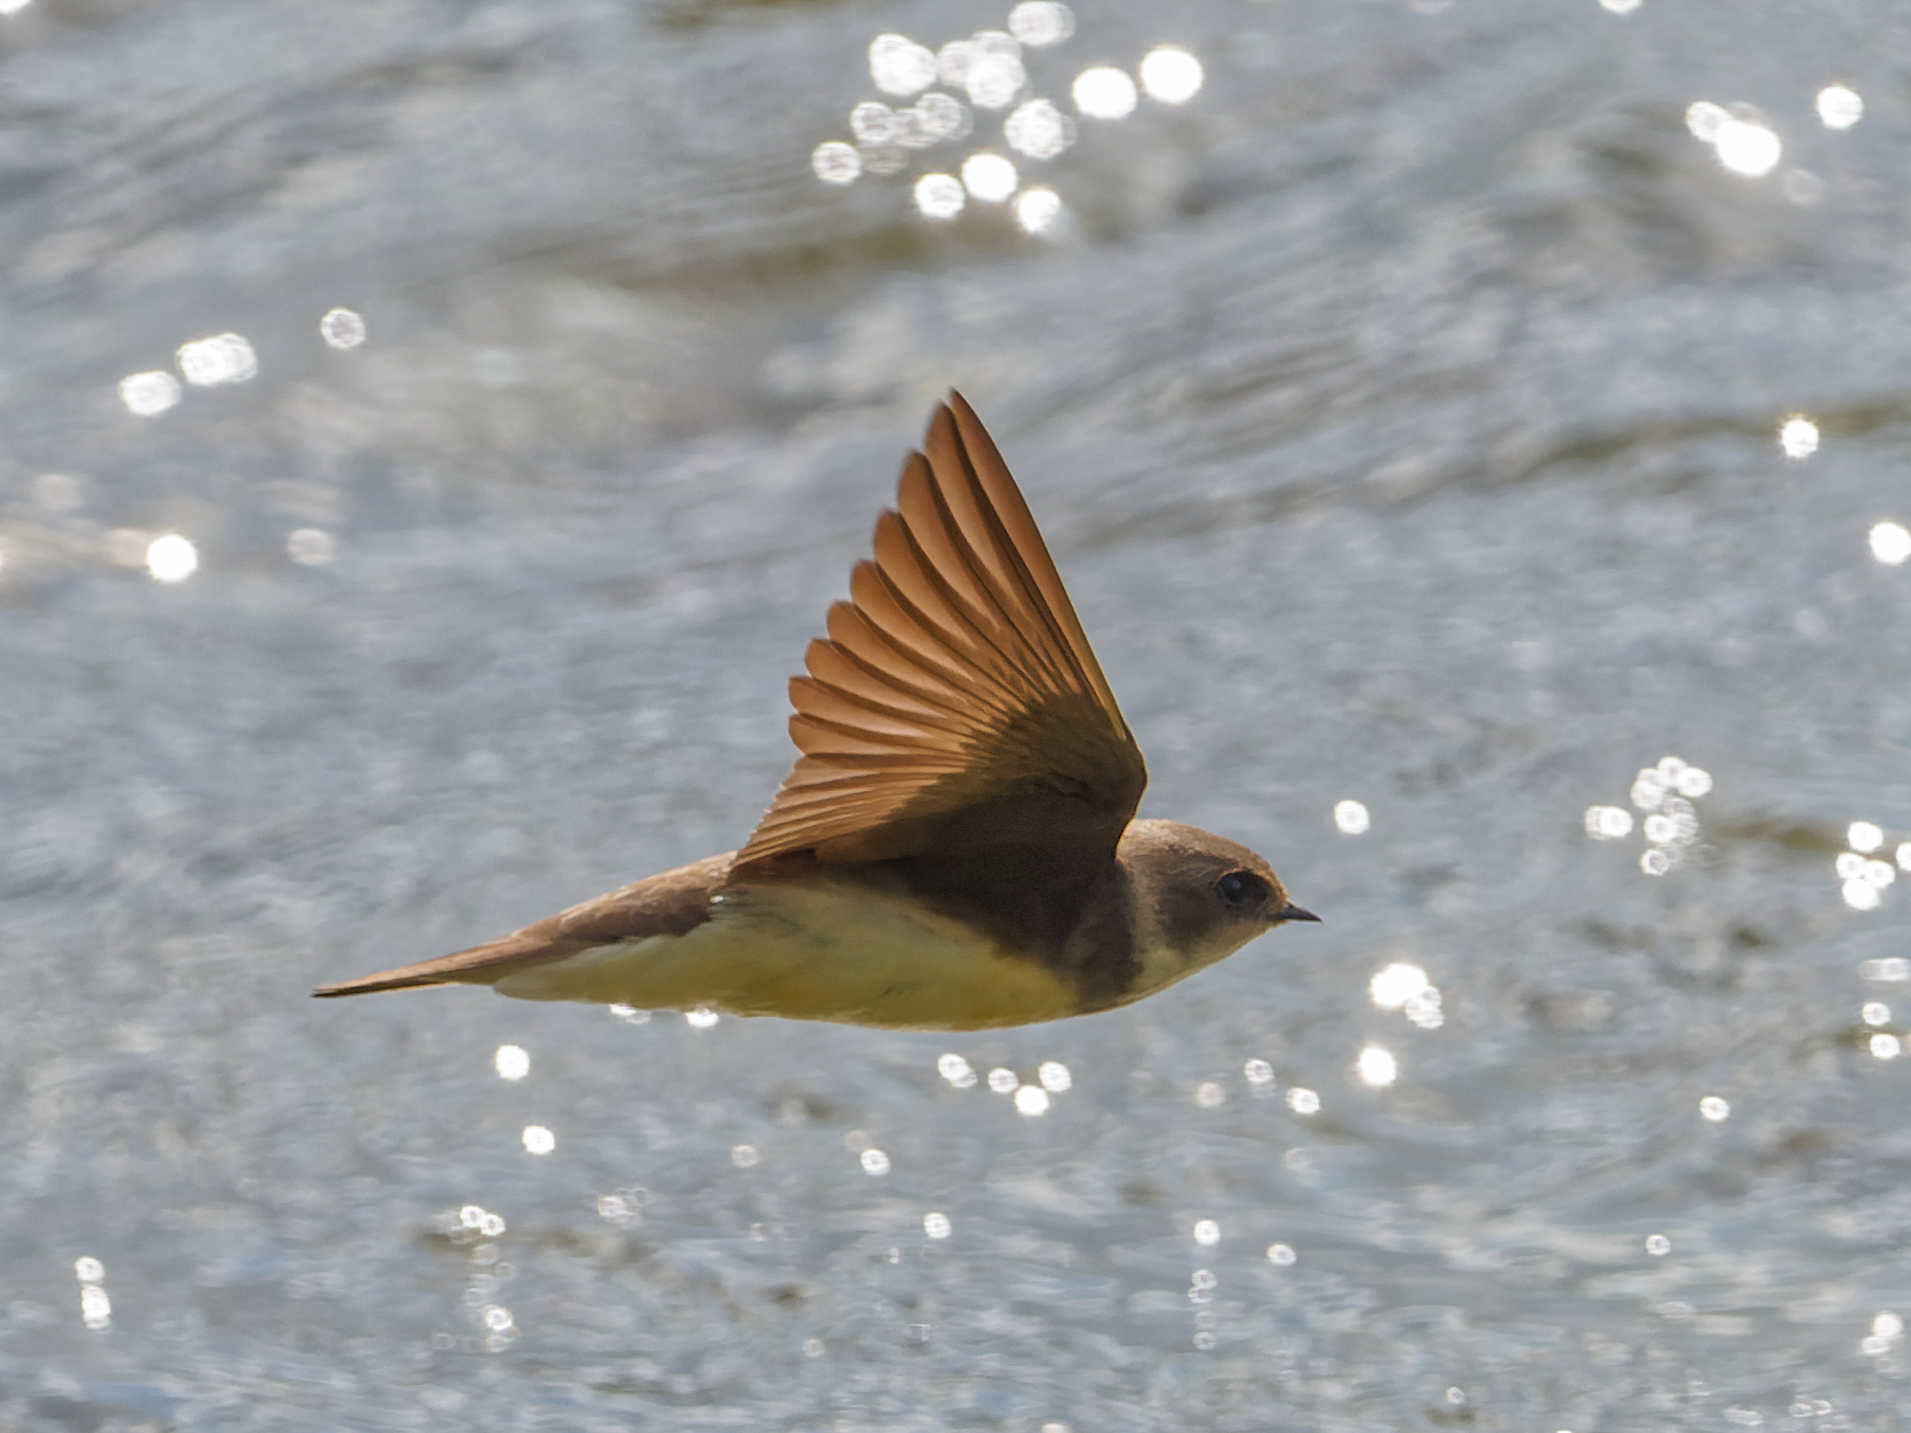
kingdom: Animalia
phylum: Chordata
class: Aves
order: Passeriformes
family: Hirundinidae
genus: Riparia
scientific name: Riparia riparia
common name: Sand martin
